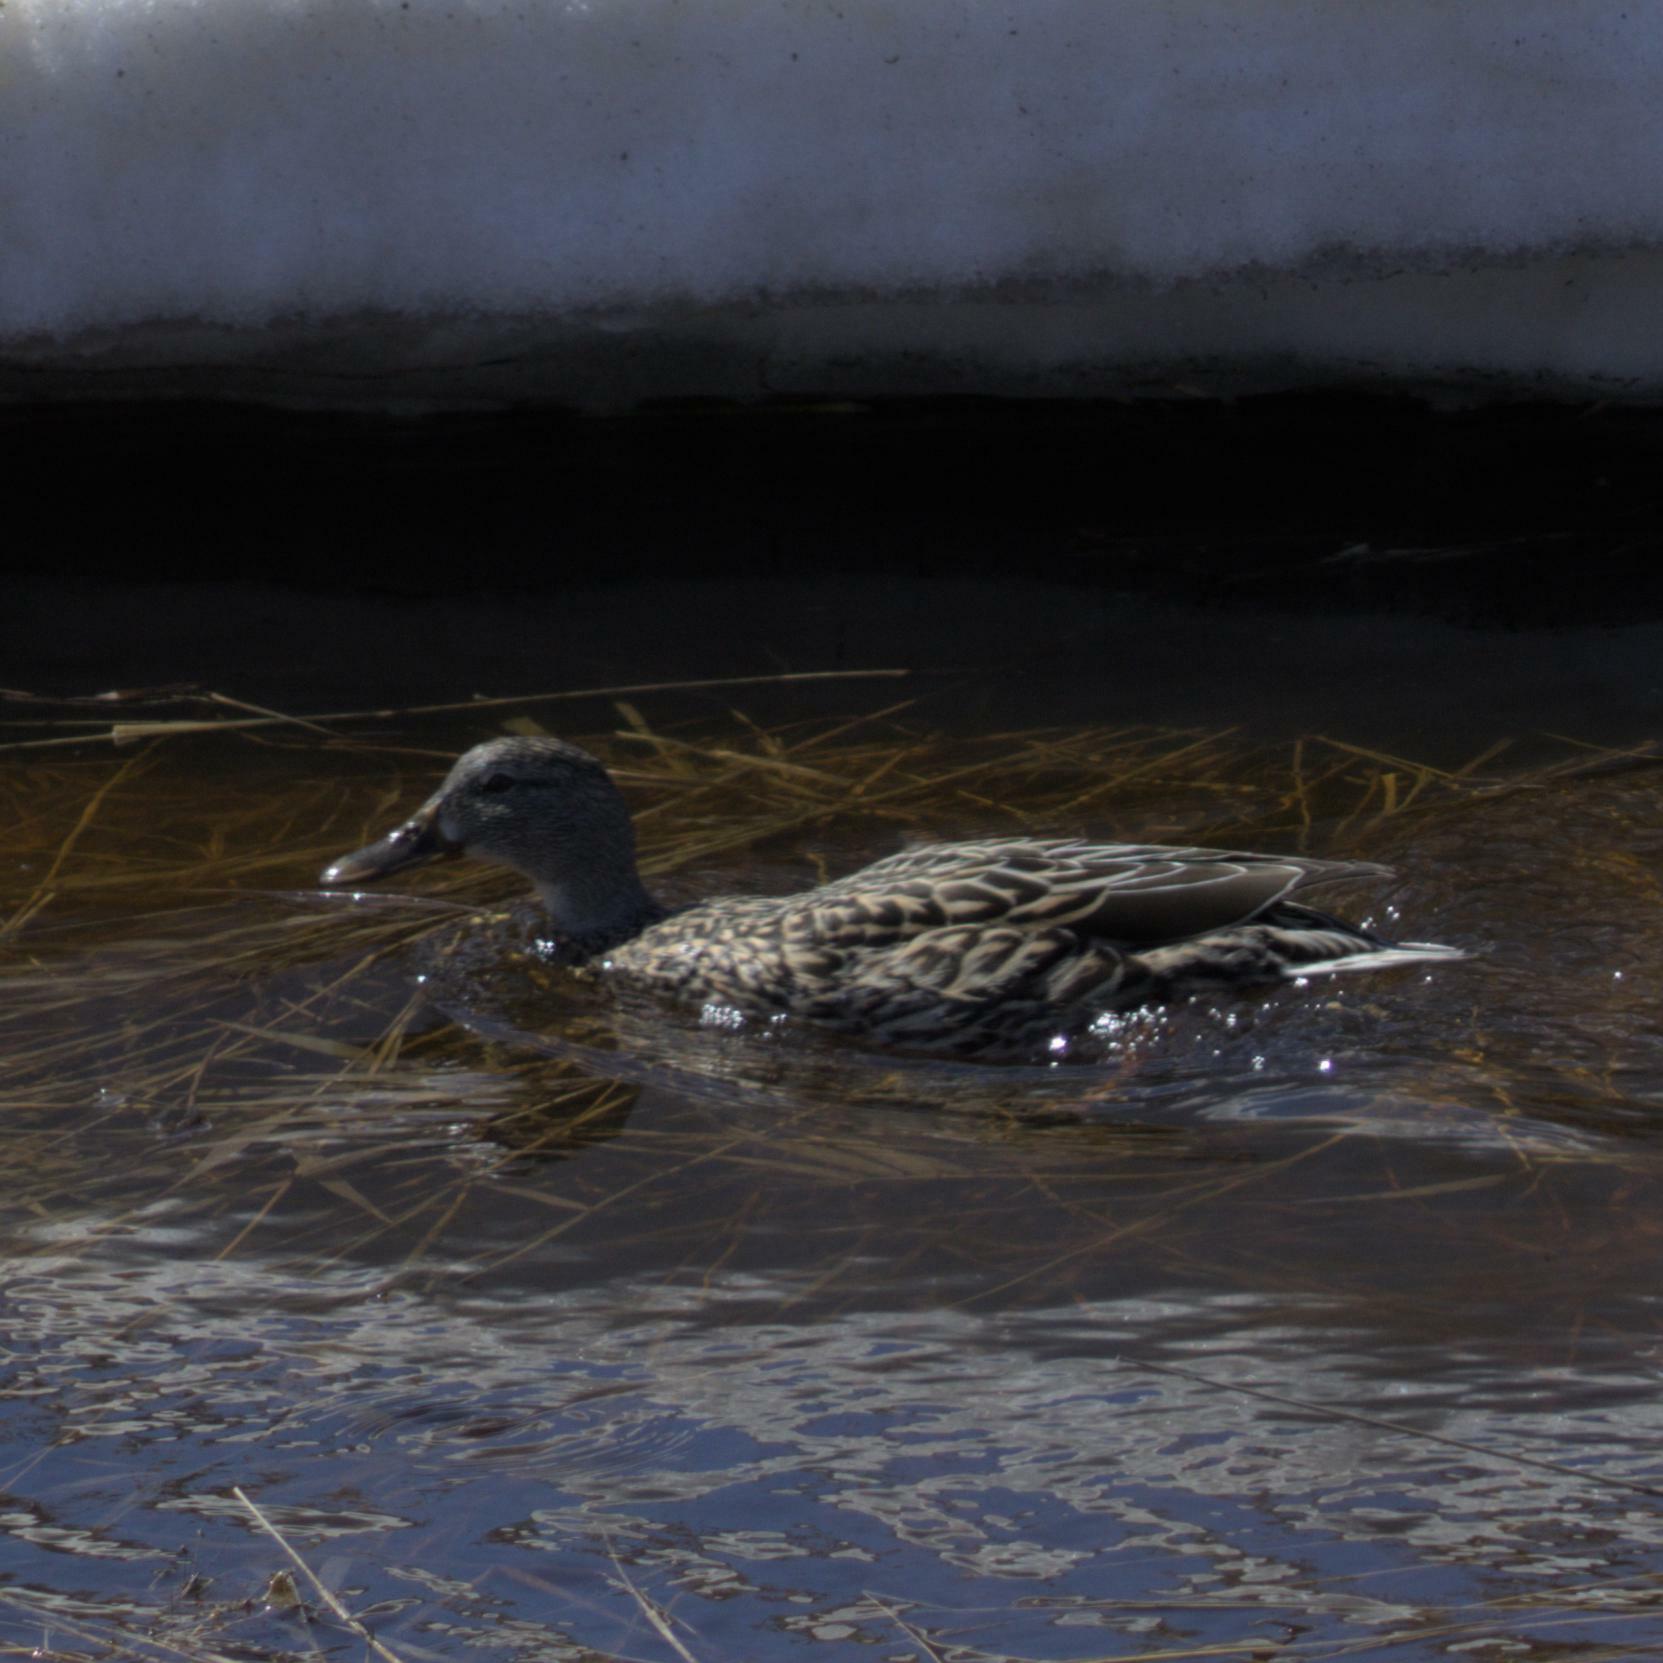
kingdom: Animalia
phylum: Chordata
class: Aves
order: Anseriformes
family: Anatidae
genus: Anas
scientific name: Anas platyrhynchos
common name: Mallard
